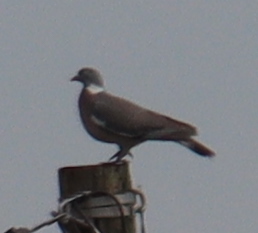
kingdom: Animalia
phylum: Chordata
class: Aves
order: Columbiformes
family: Columbidae
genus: Columba
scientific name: Columba palumbus
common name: Common wood pigeon
